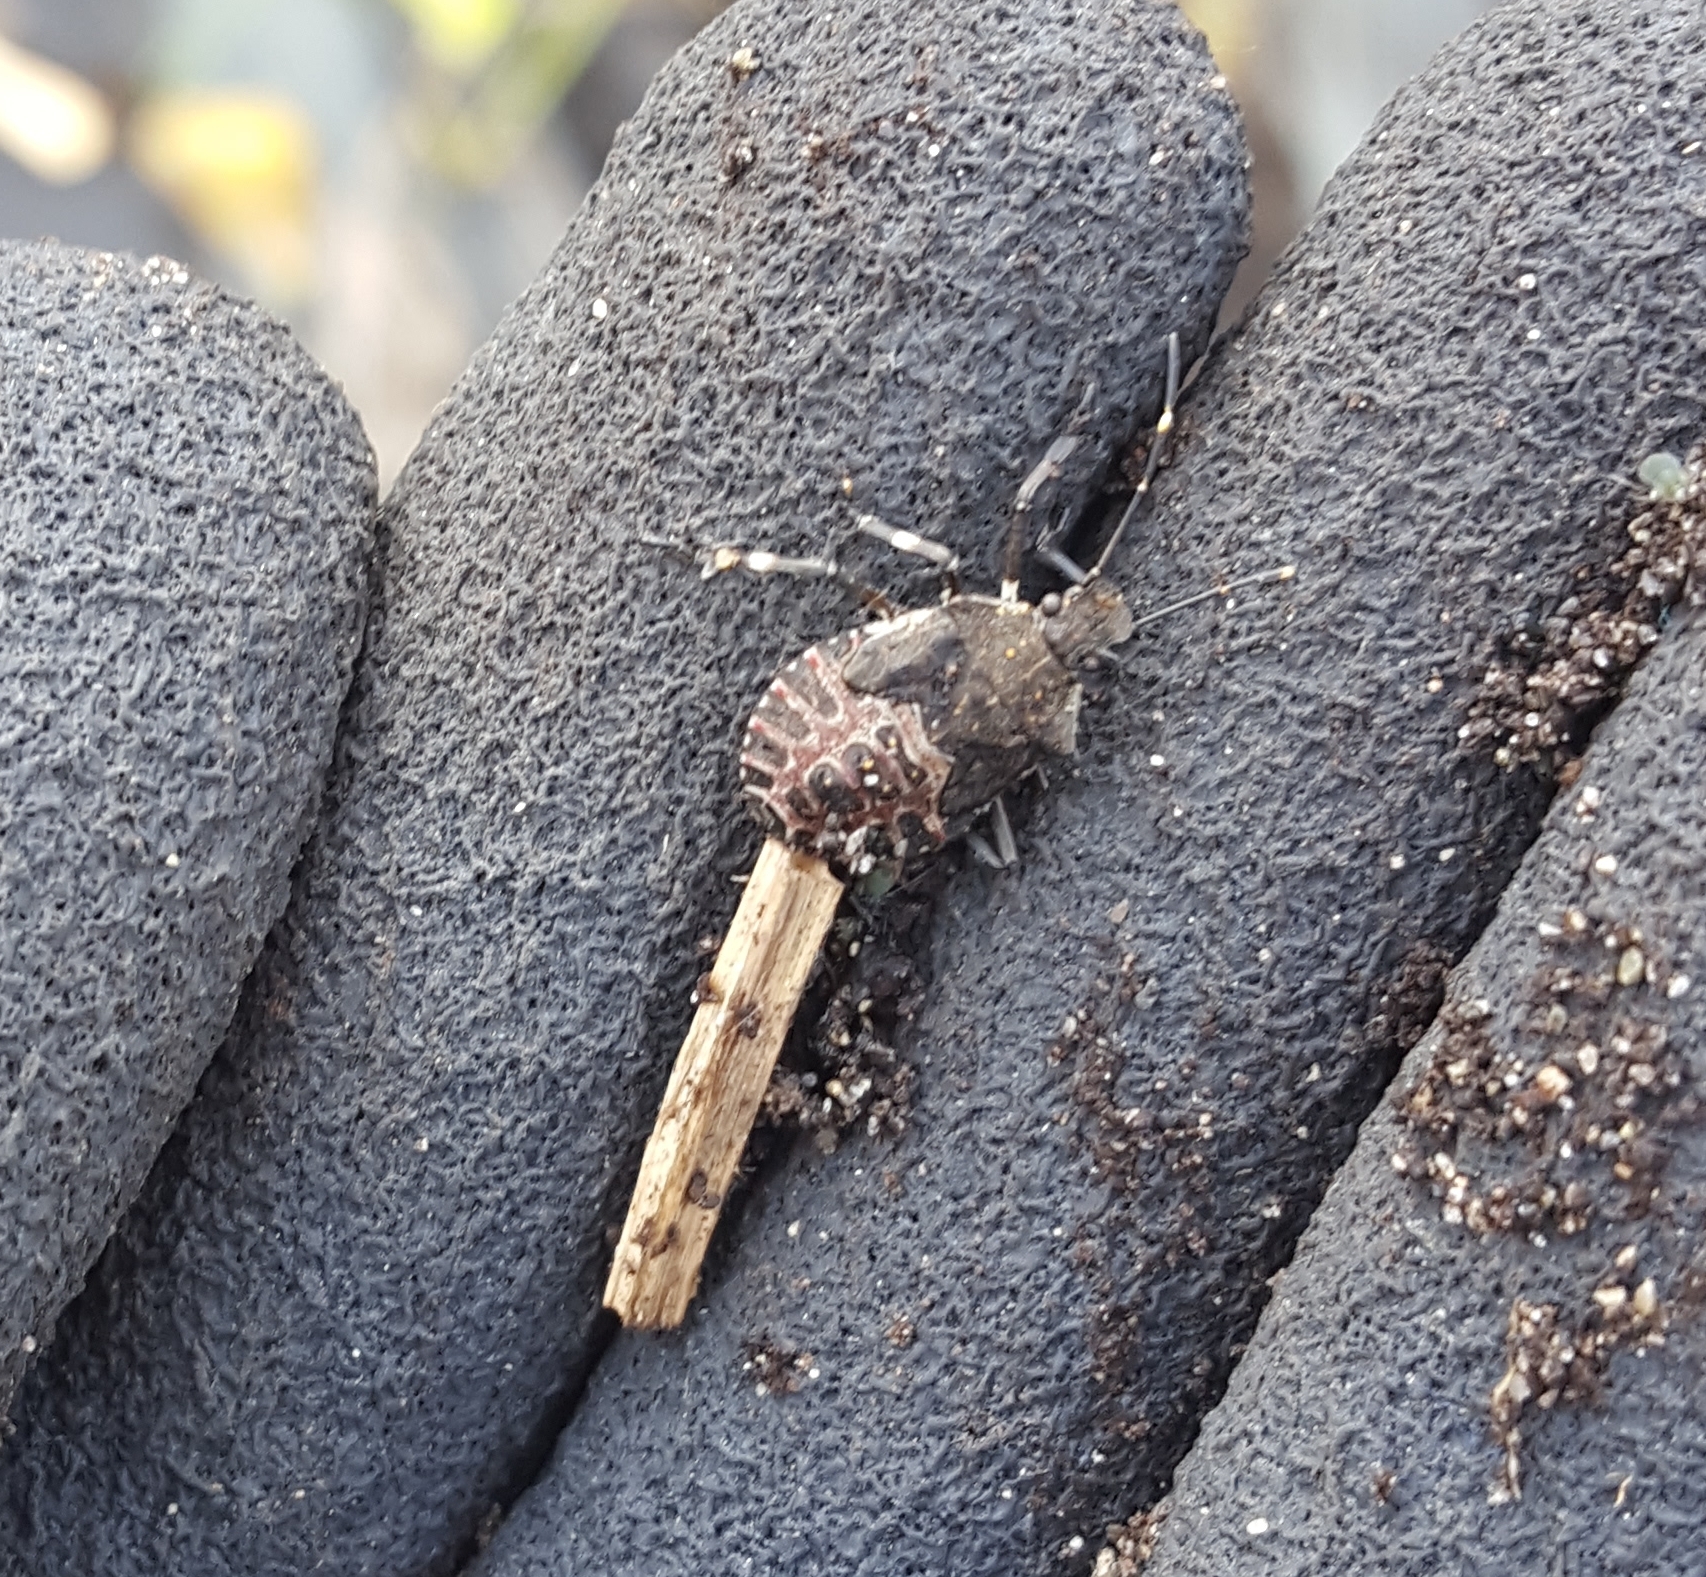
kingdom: Animalia
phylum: Arthropoda
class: Insecta
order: Hemiptera
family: Pentatomidae
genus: Halyomorpha
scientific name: Halyomorpha halys
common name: Brown marmorated stink bug
